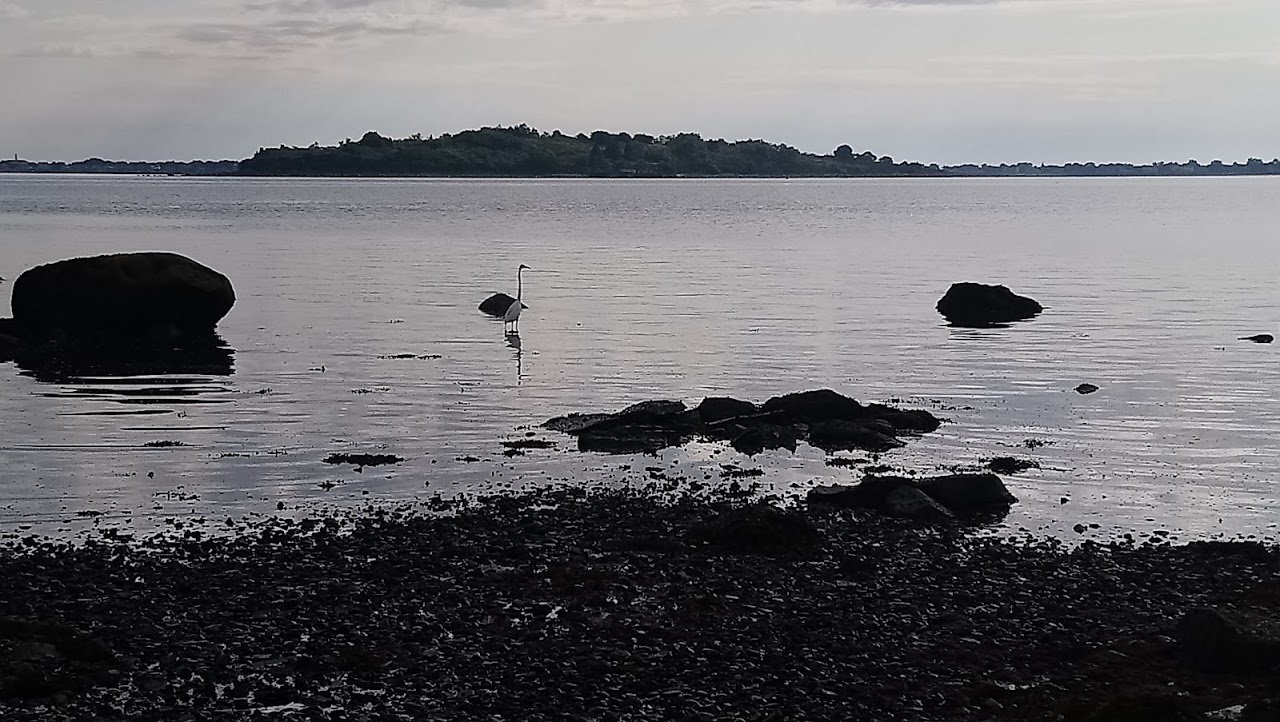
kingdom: Animalia
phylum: Chordata
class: Aves
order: Pelecaniformes
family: Ardeidae
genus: Ardea
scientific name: Ardea alba
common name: Great egret
